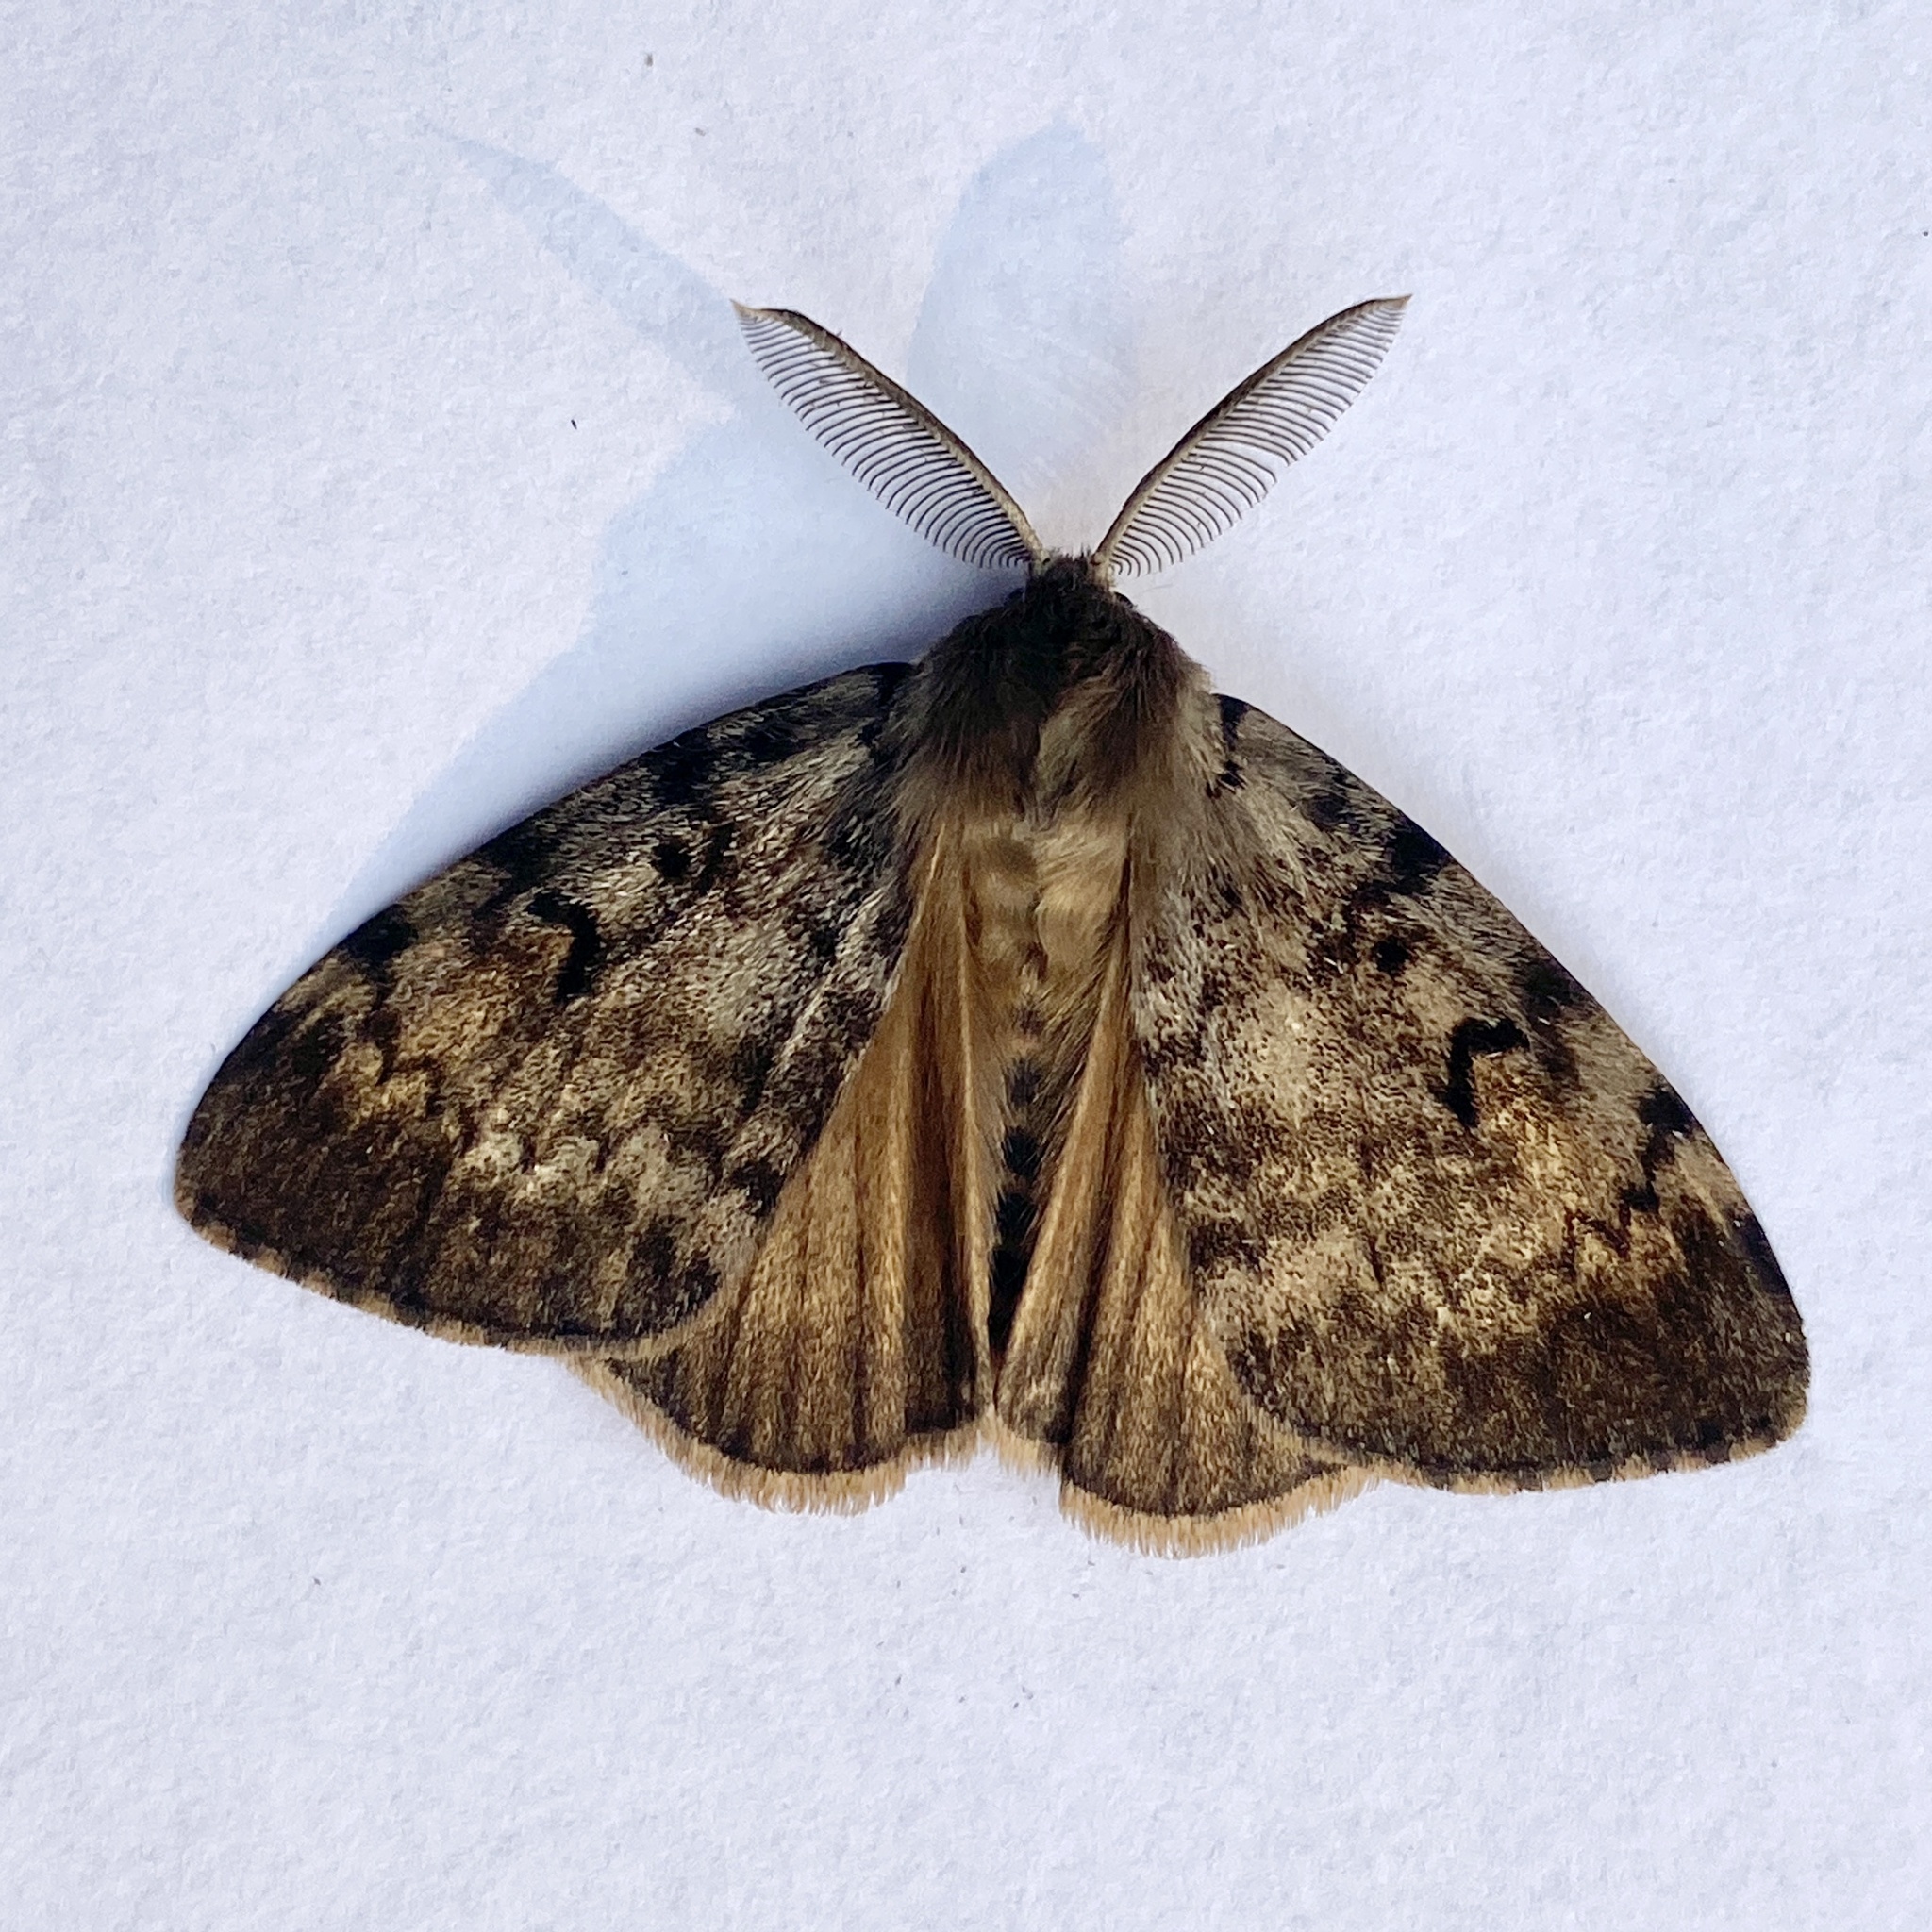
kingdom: Animalia
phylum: Arthropoda
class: Insecta
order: Lepidoptera
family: Erebidae
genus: Lymantria
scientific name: Lymantria dispar
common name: Gypsy moth
